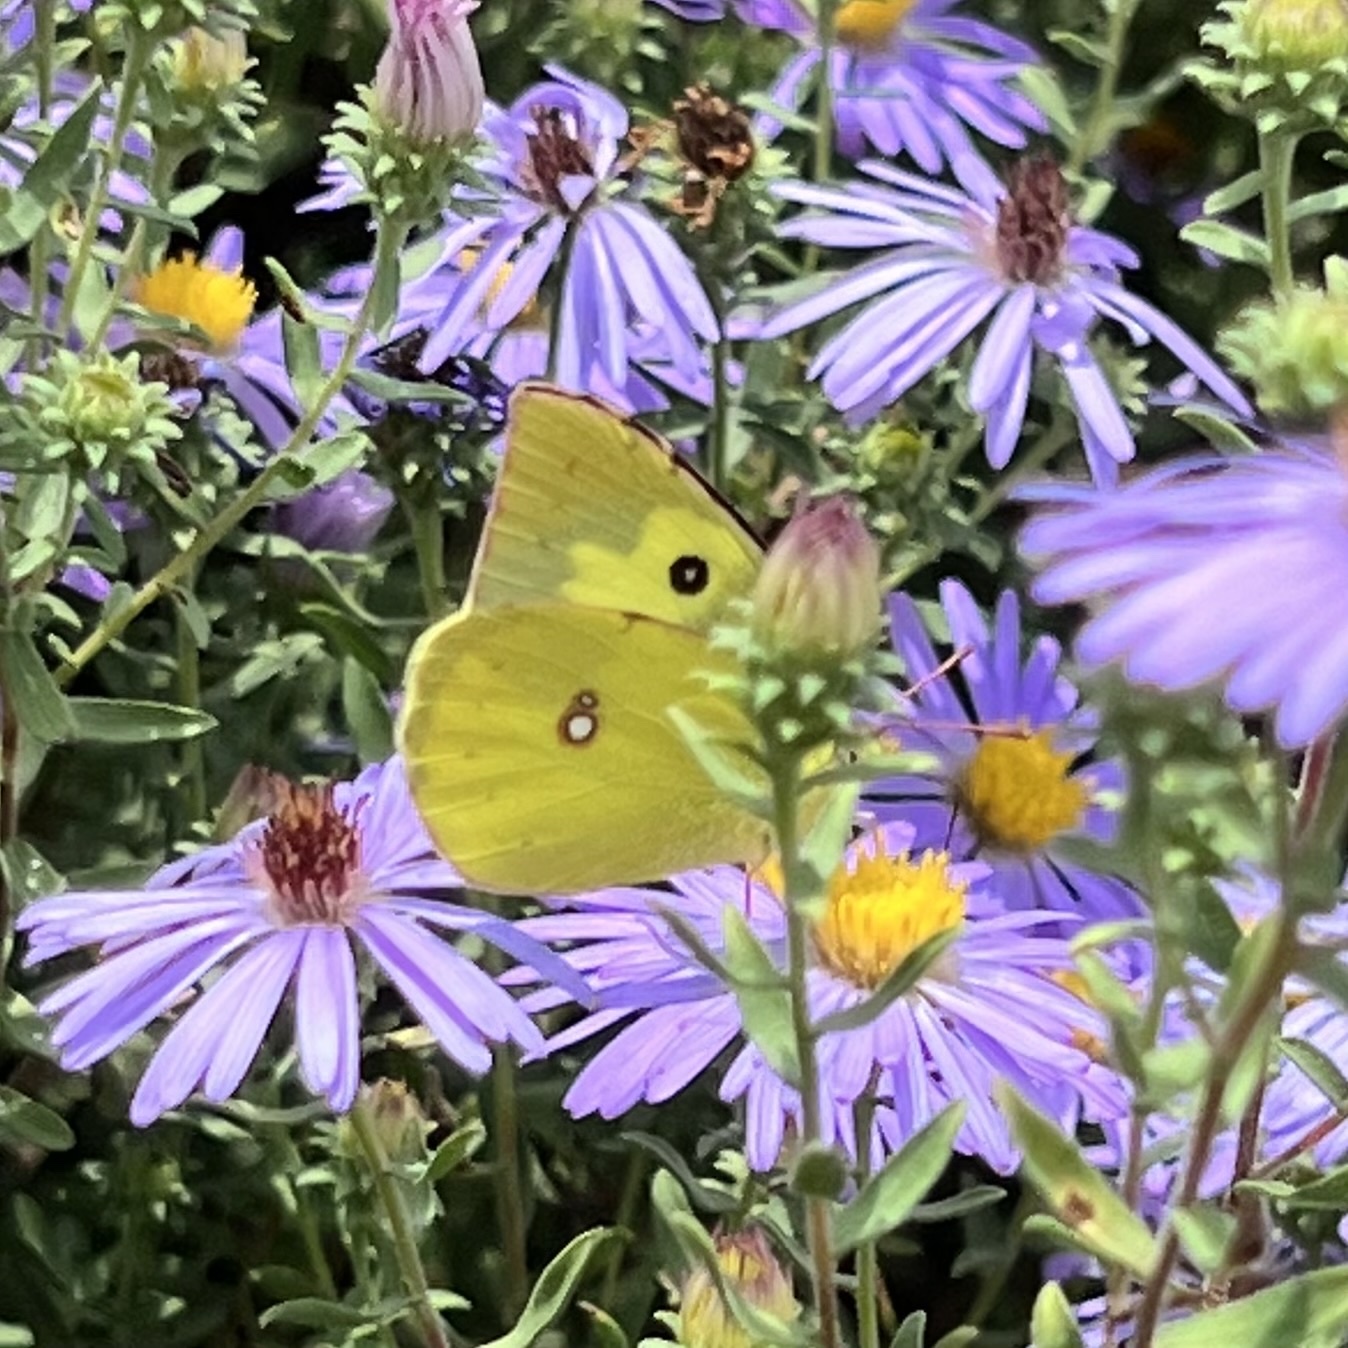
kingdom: Animalia
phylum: Arthropoda
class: Insecta
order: Lepidoptera
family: Pieridae
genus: Zerene
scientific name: Zerene cesonia
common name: Southern dogface
